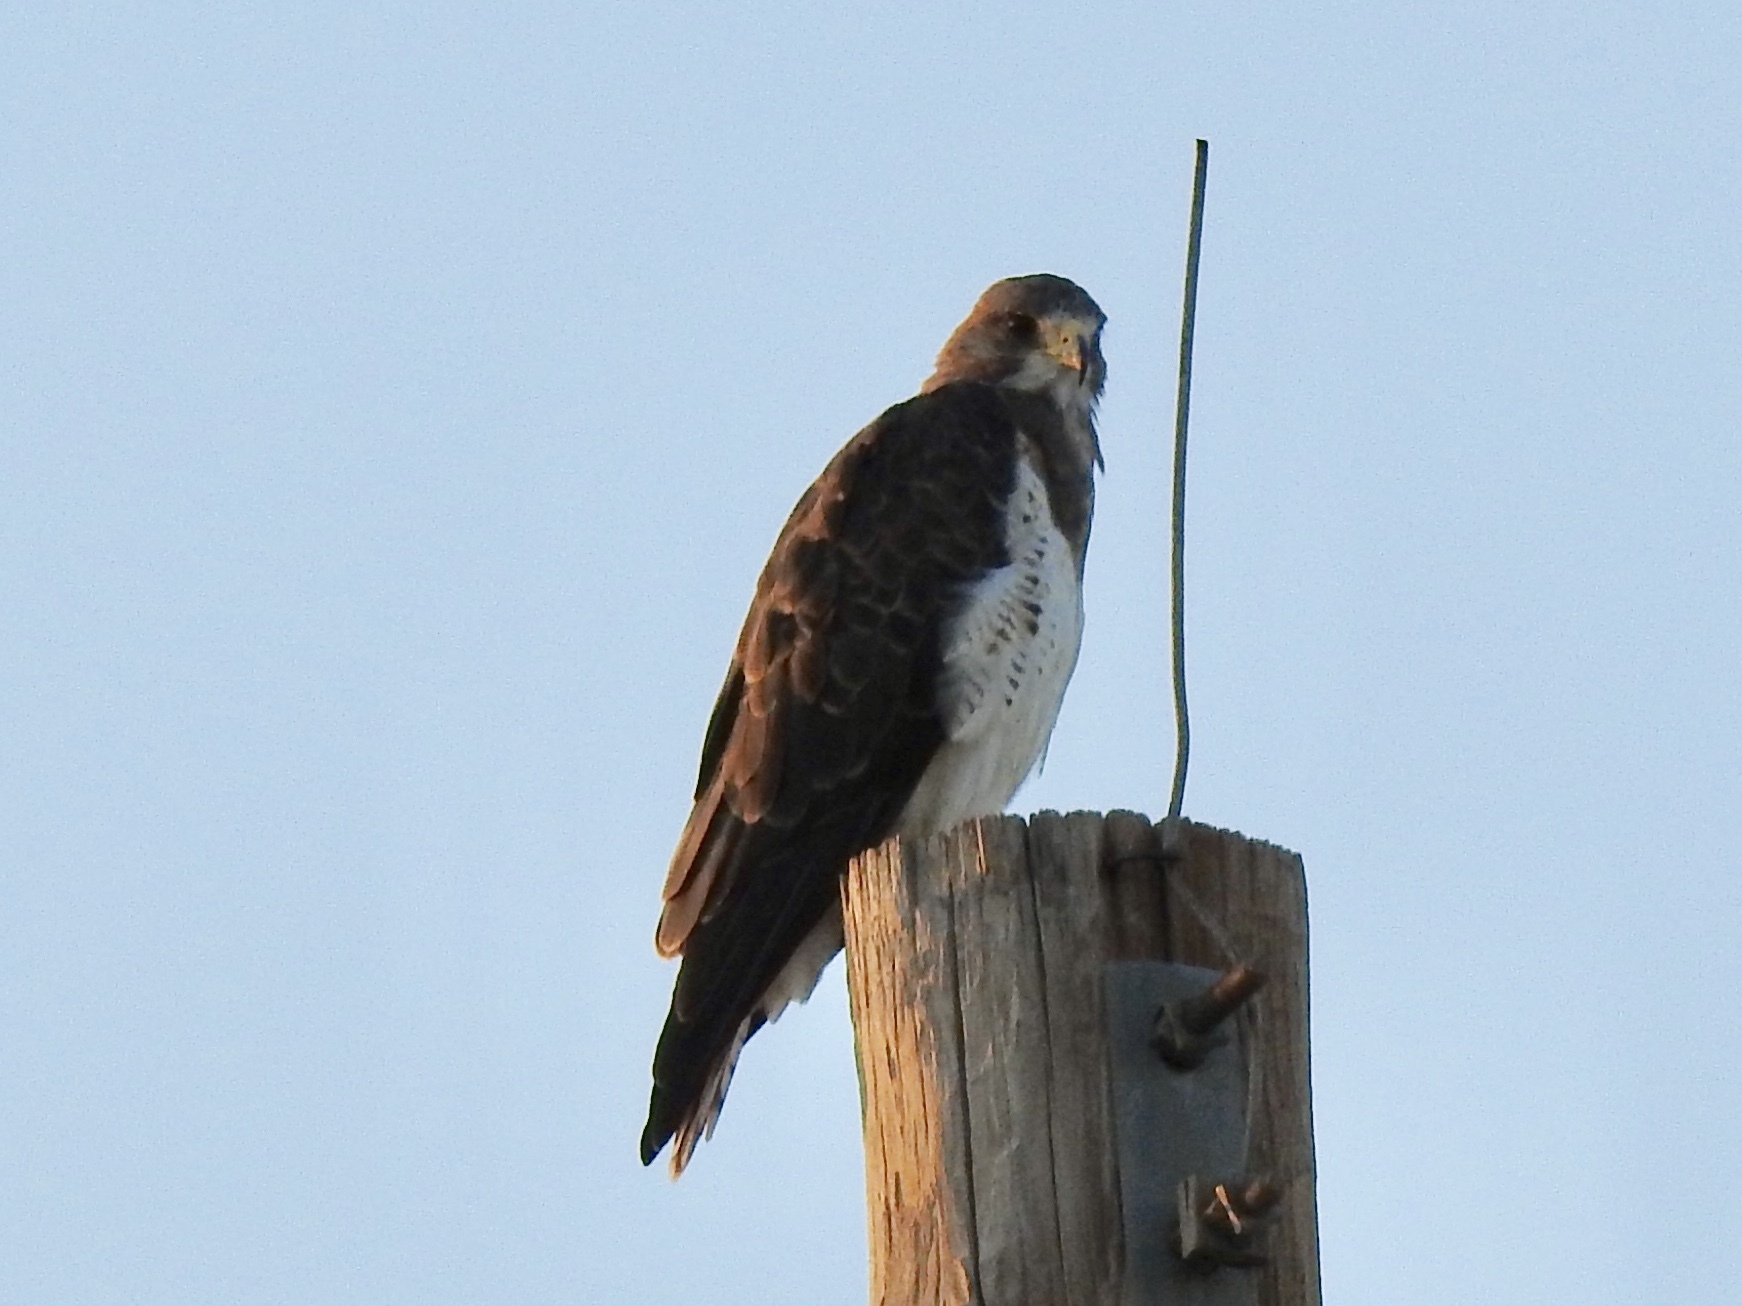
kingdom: Animalia
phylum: Chordata
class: Aves
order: Accipitriformes
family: Accipitridae
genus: Buteo
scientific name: Buteo swainsoni
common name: Swainson's hawk
